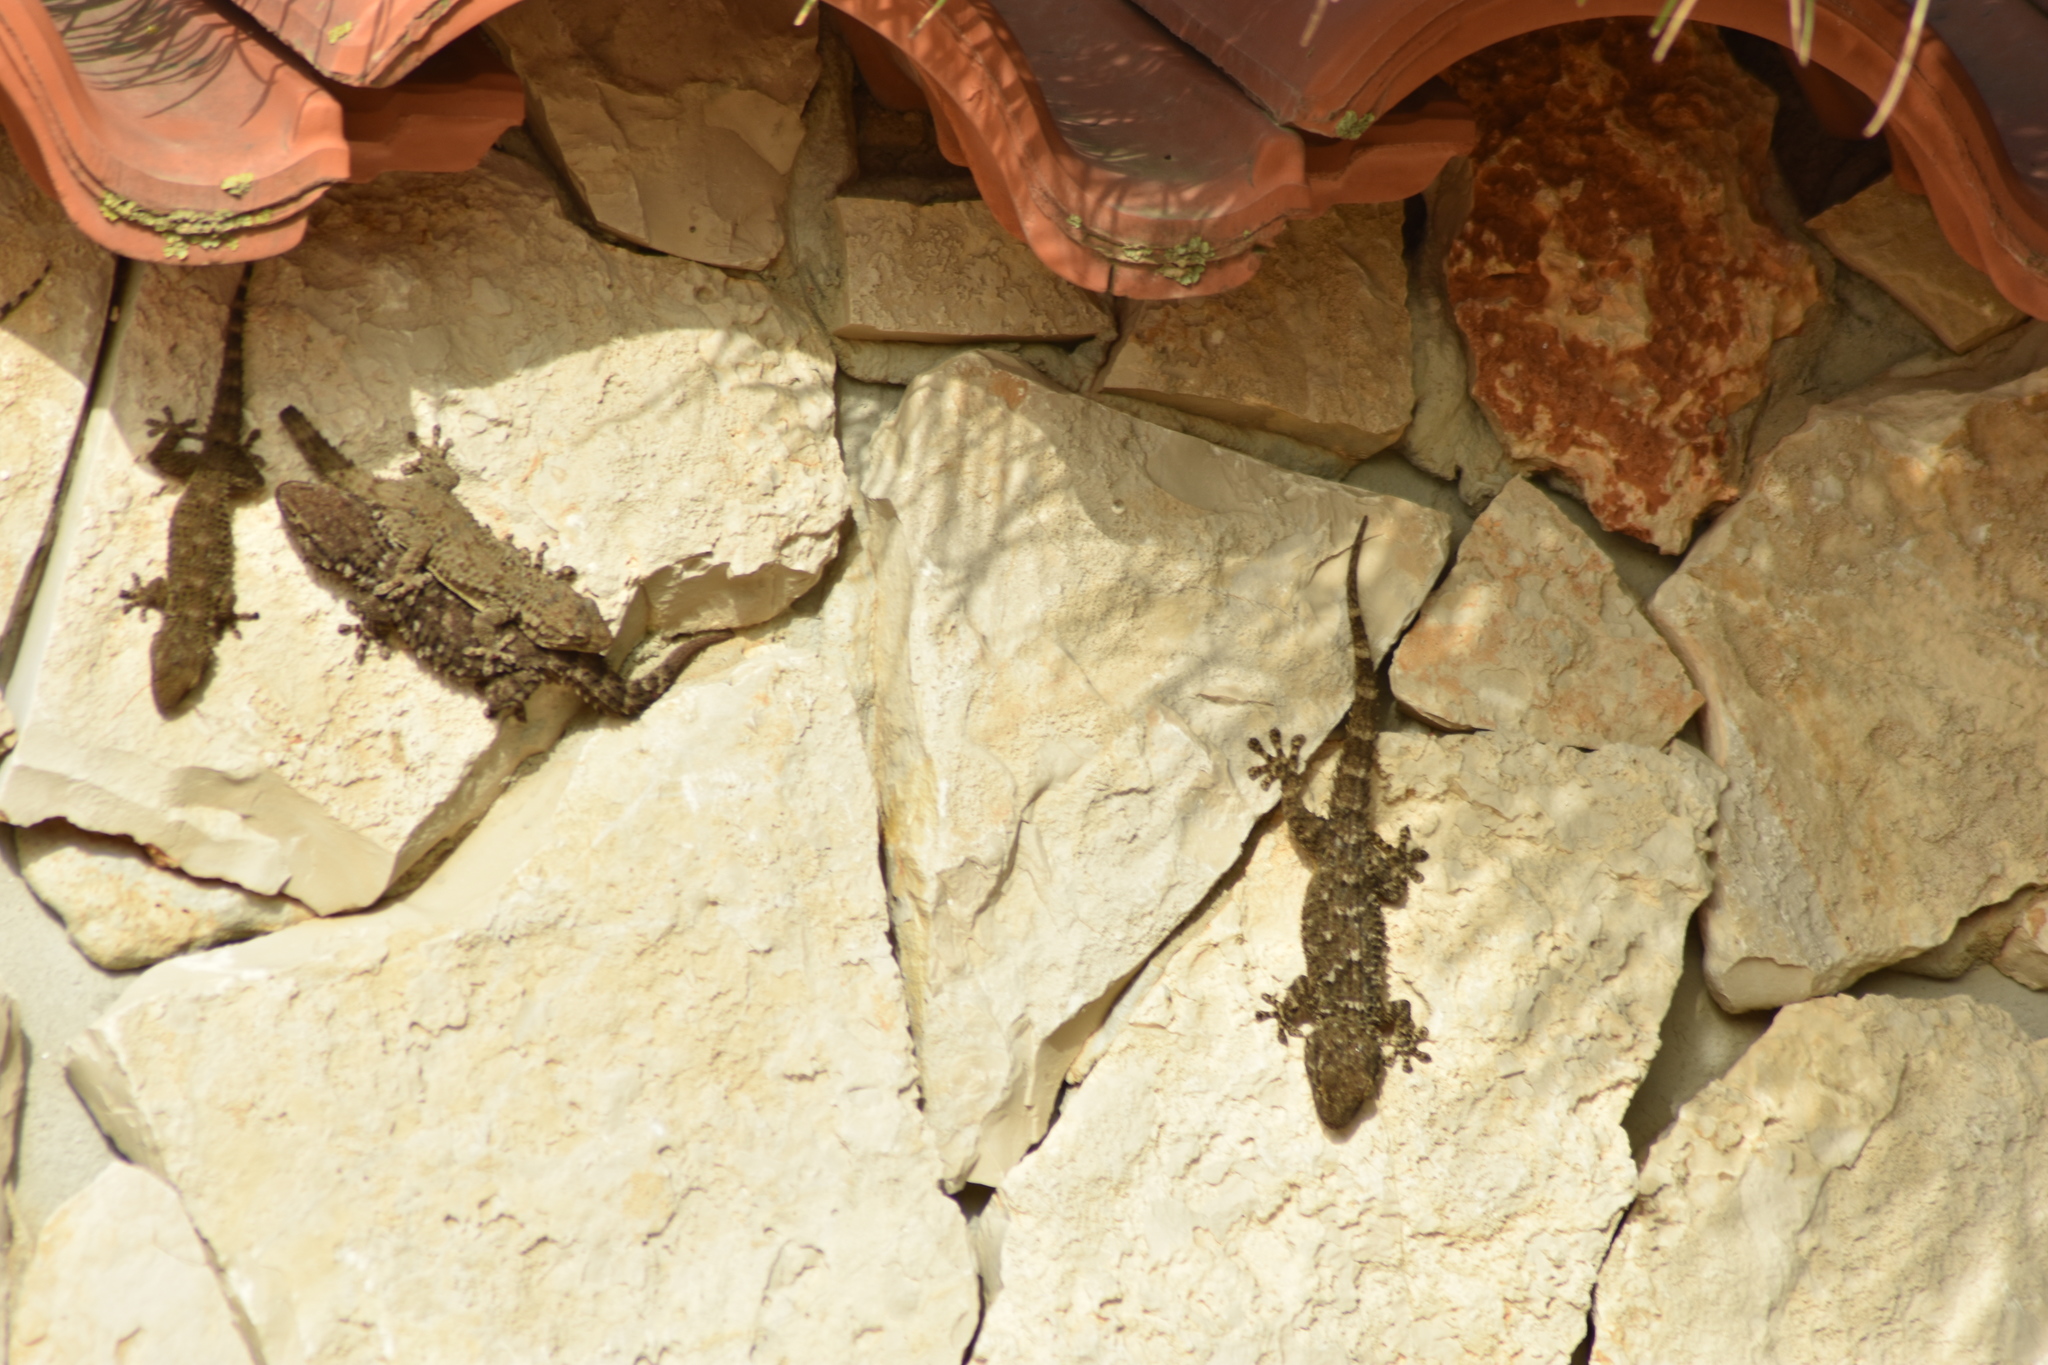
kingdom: Animalia
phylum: Chordata
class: Squamata
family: Phyllodactylidae
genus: Tarentola
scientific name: Tarentola mauritanica
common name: Moorish gecko
